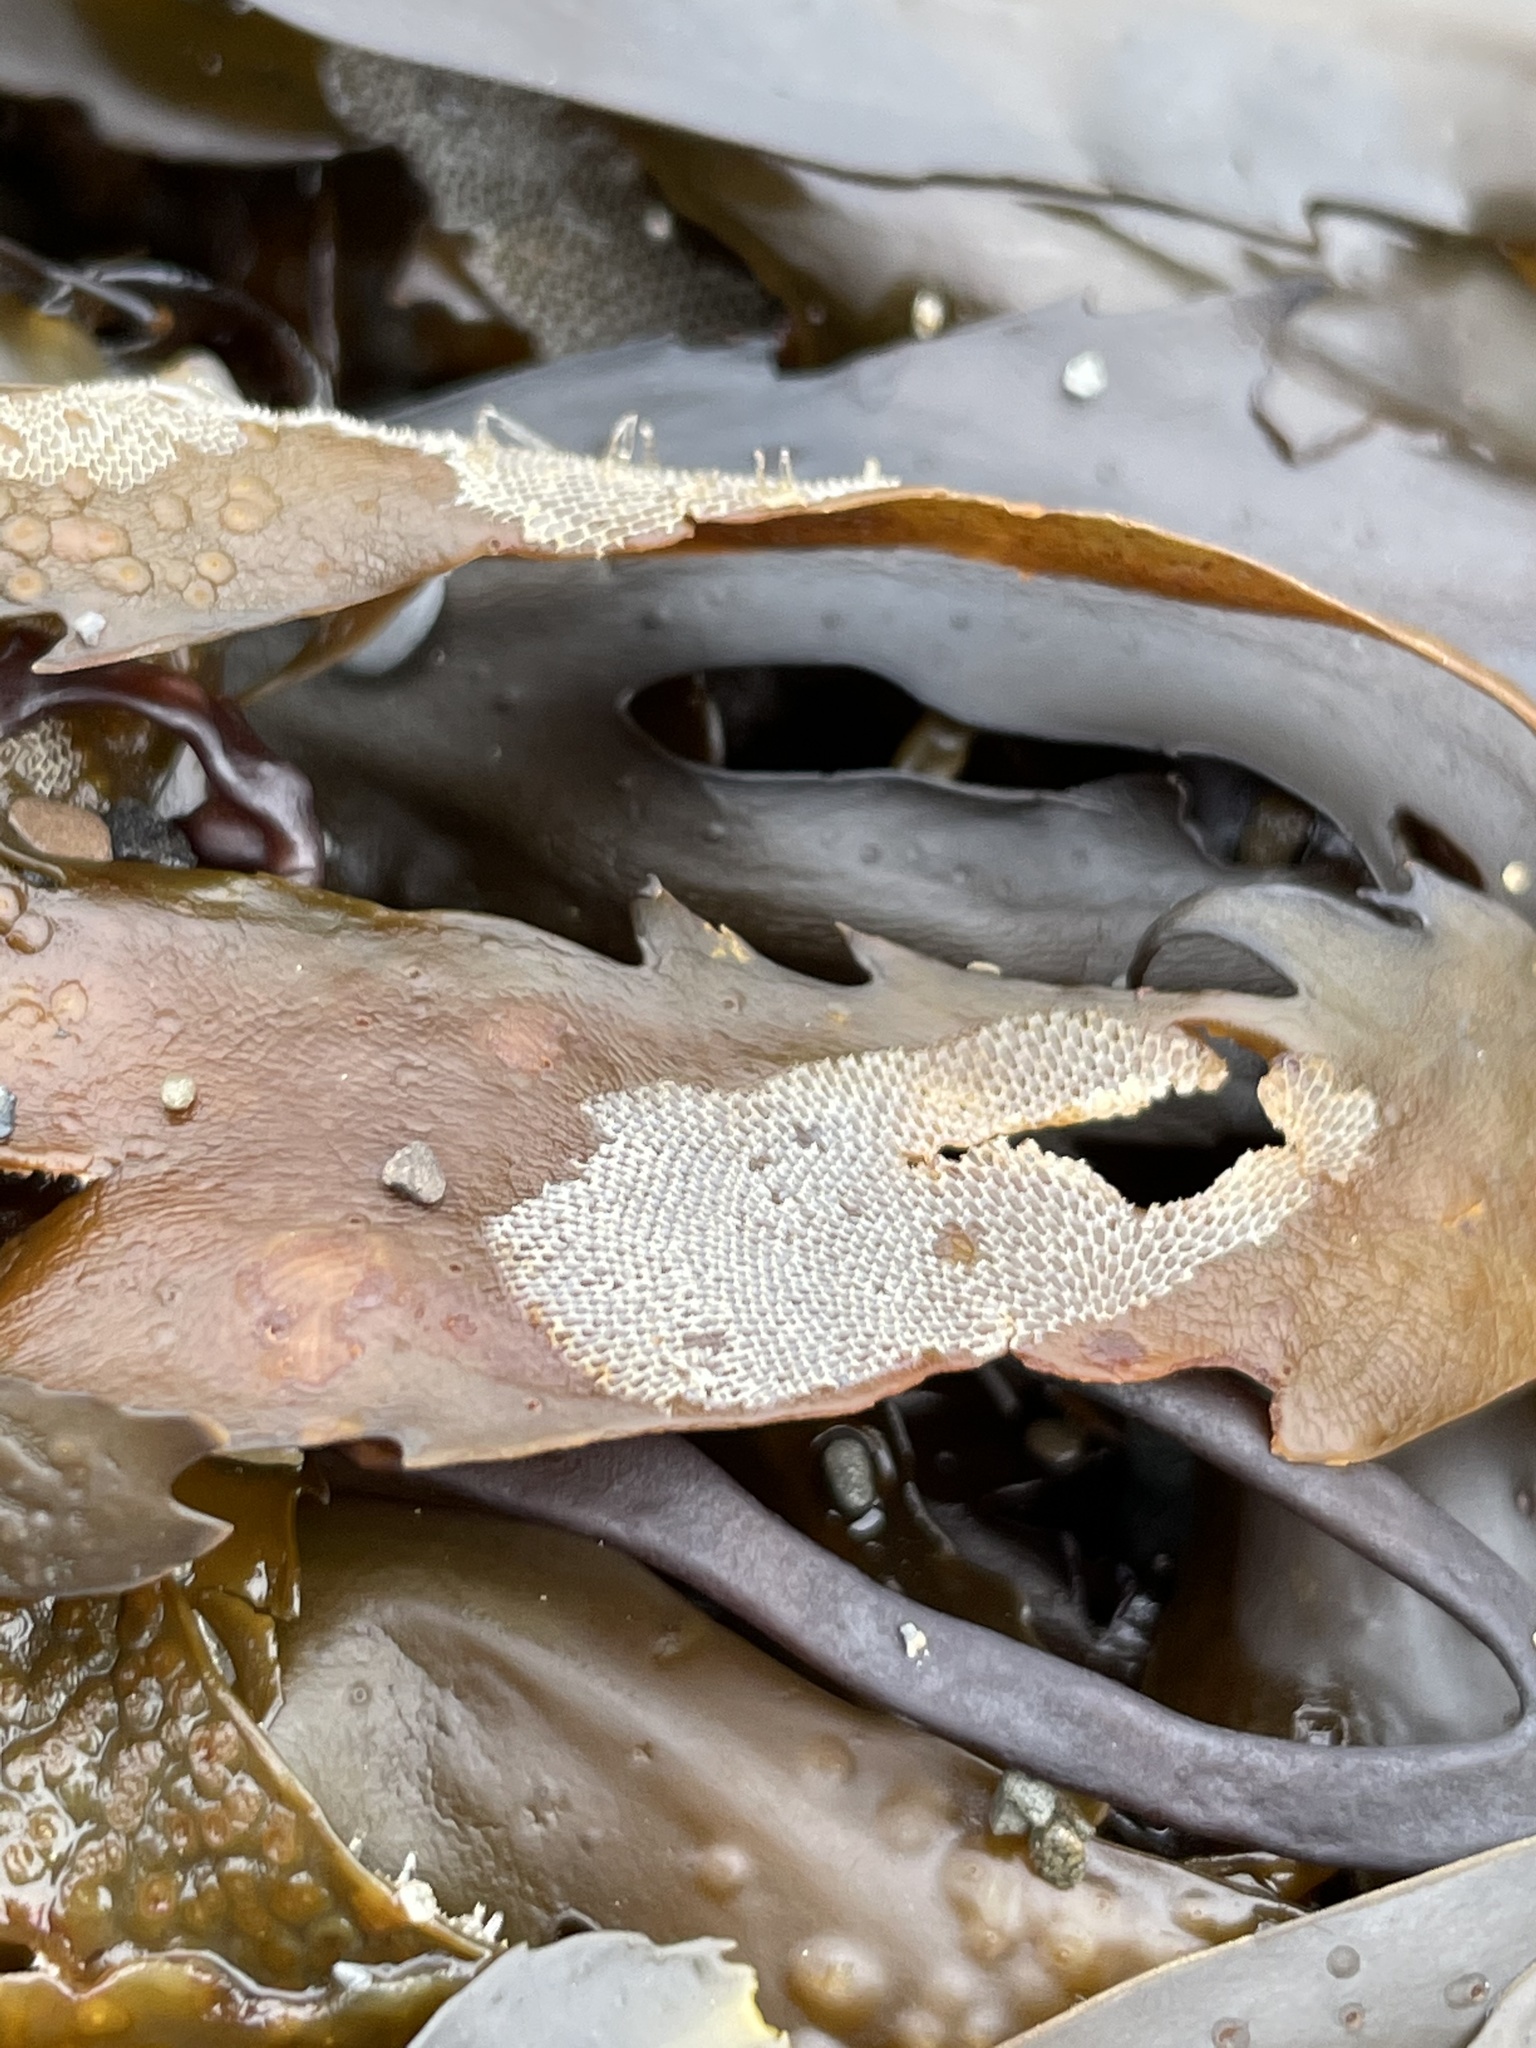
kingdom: Animalia
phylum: Bryozoa
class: Gymnolaemata
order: Cheilostomatida
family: Membraniporidae
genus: Membranipora
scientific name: Membranipora membranacea
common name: Sea mat
